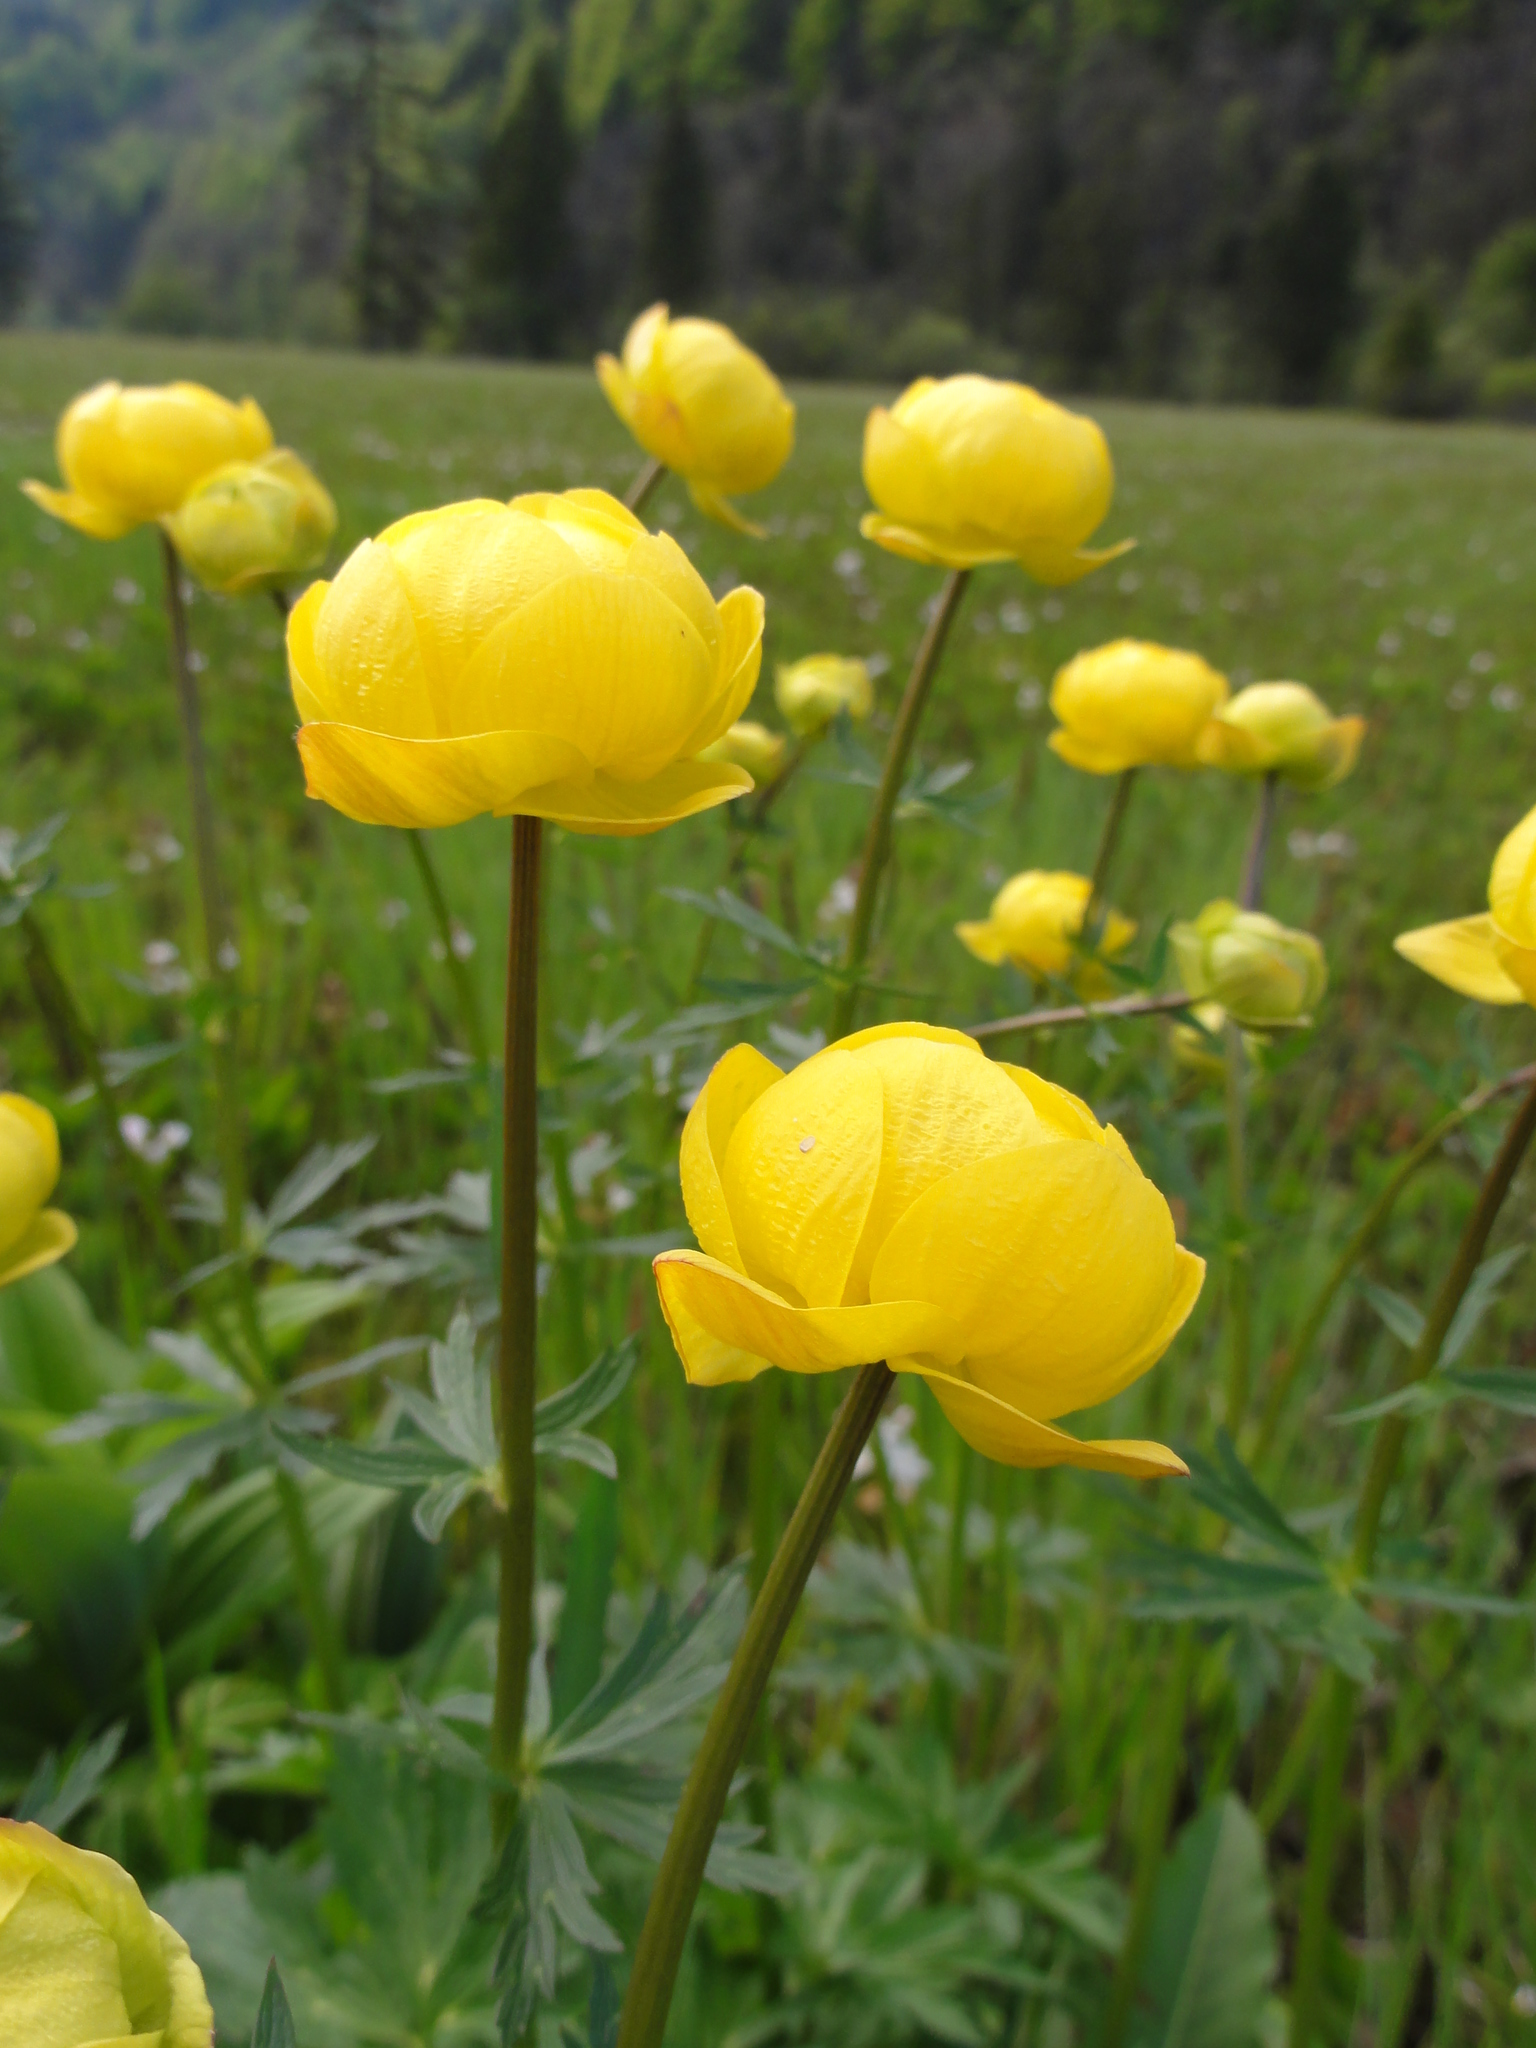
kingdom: Plantae
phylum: Tracheophyta
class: Magnoliopsida
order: Ranunculales
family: Ranunculaceae
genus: Trollius
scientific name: Trollius europaeus
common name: European globeflower
